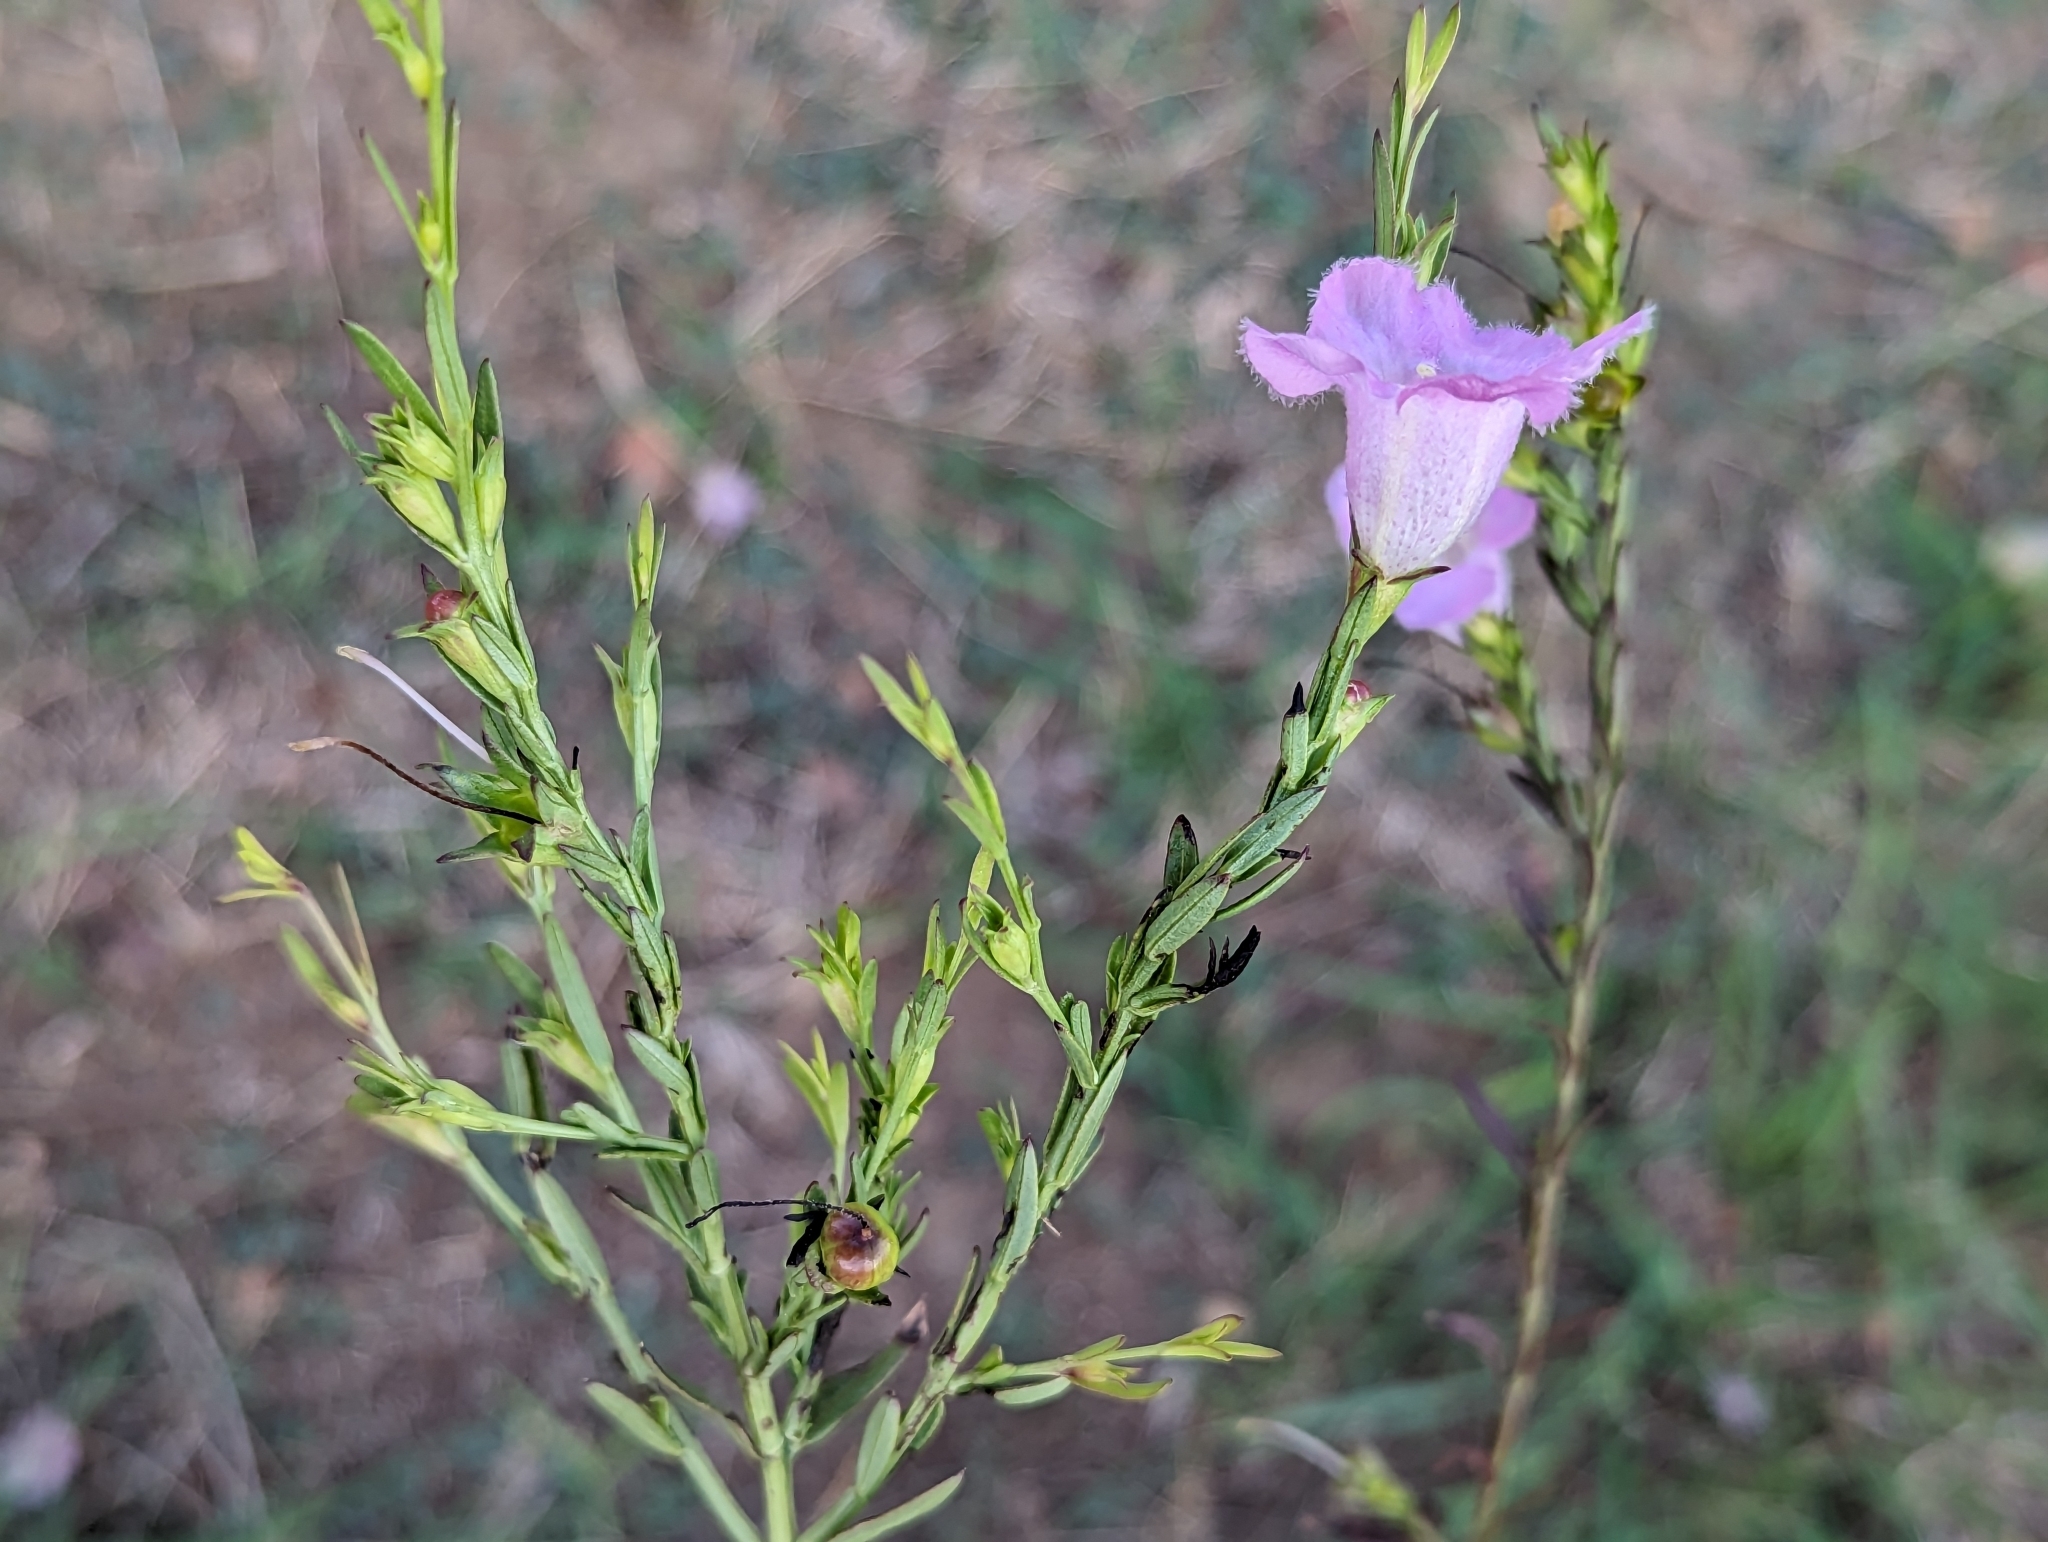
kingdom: Plantae
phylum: Tracheophyta
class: Magnoliopsida
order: Lamiales
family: Orobanchaceae
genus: Agalinis
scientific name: Agalinis heterophylla
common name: Prairie agalinis
